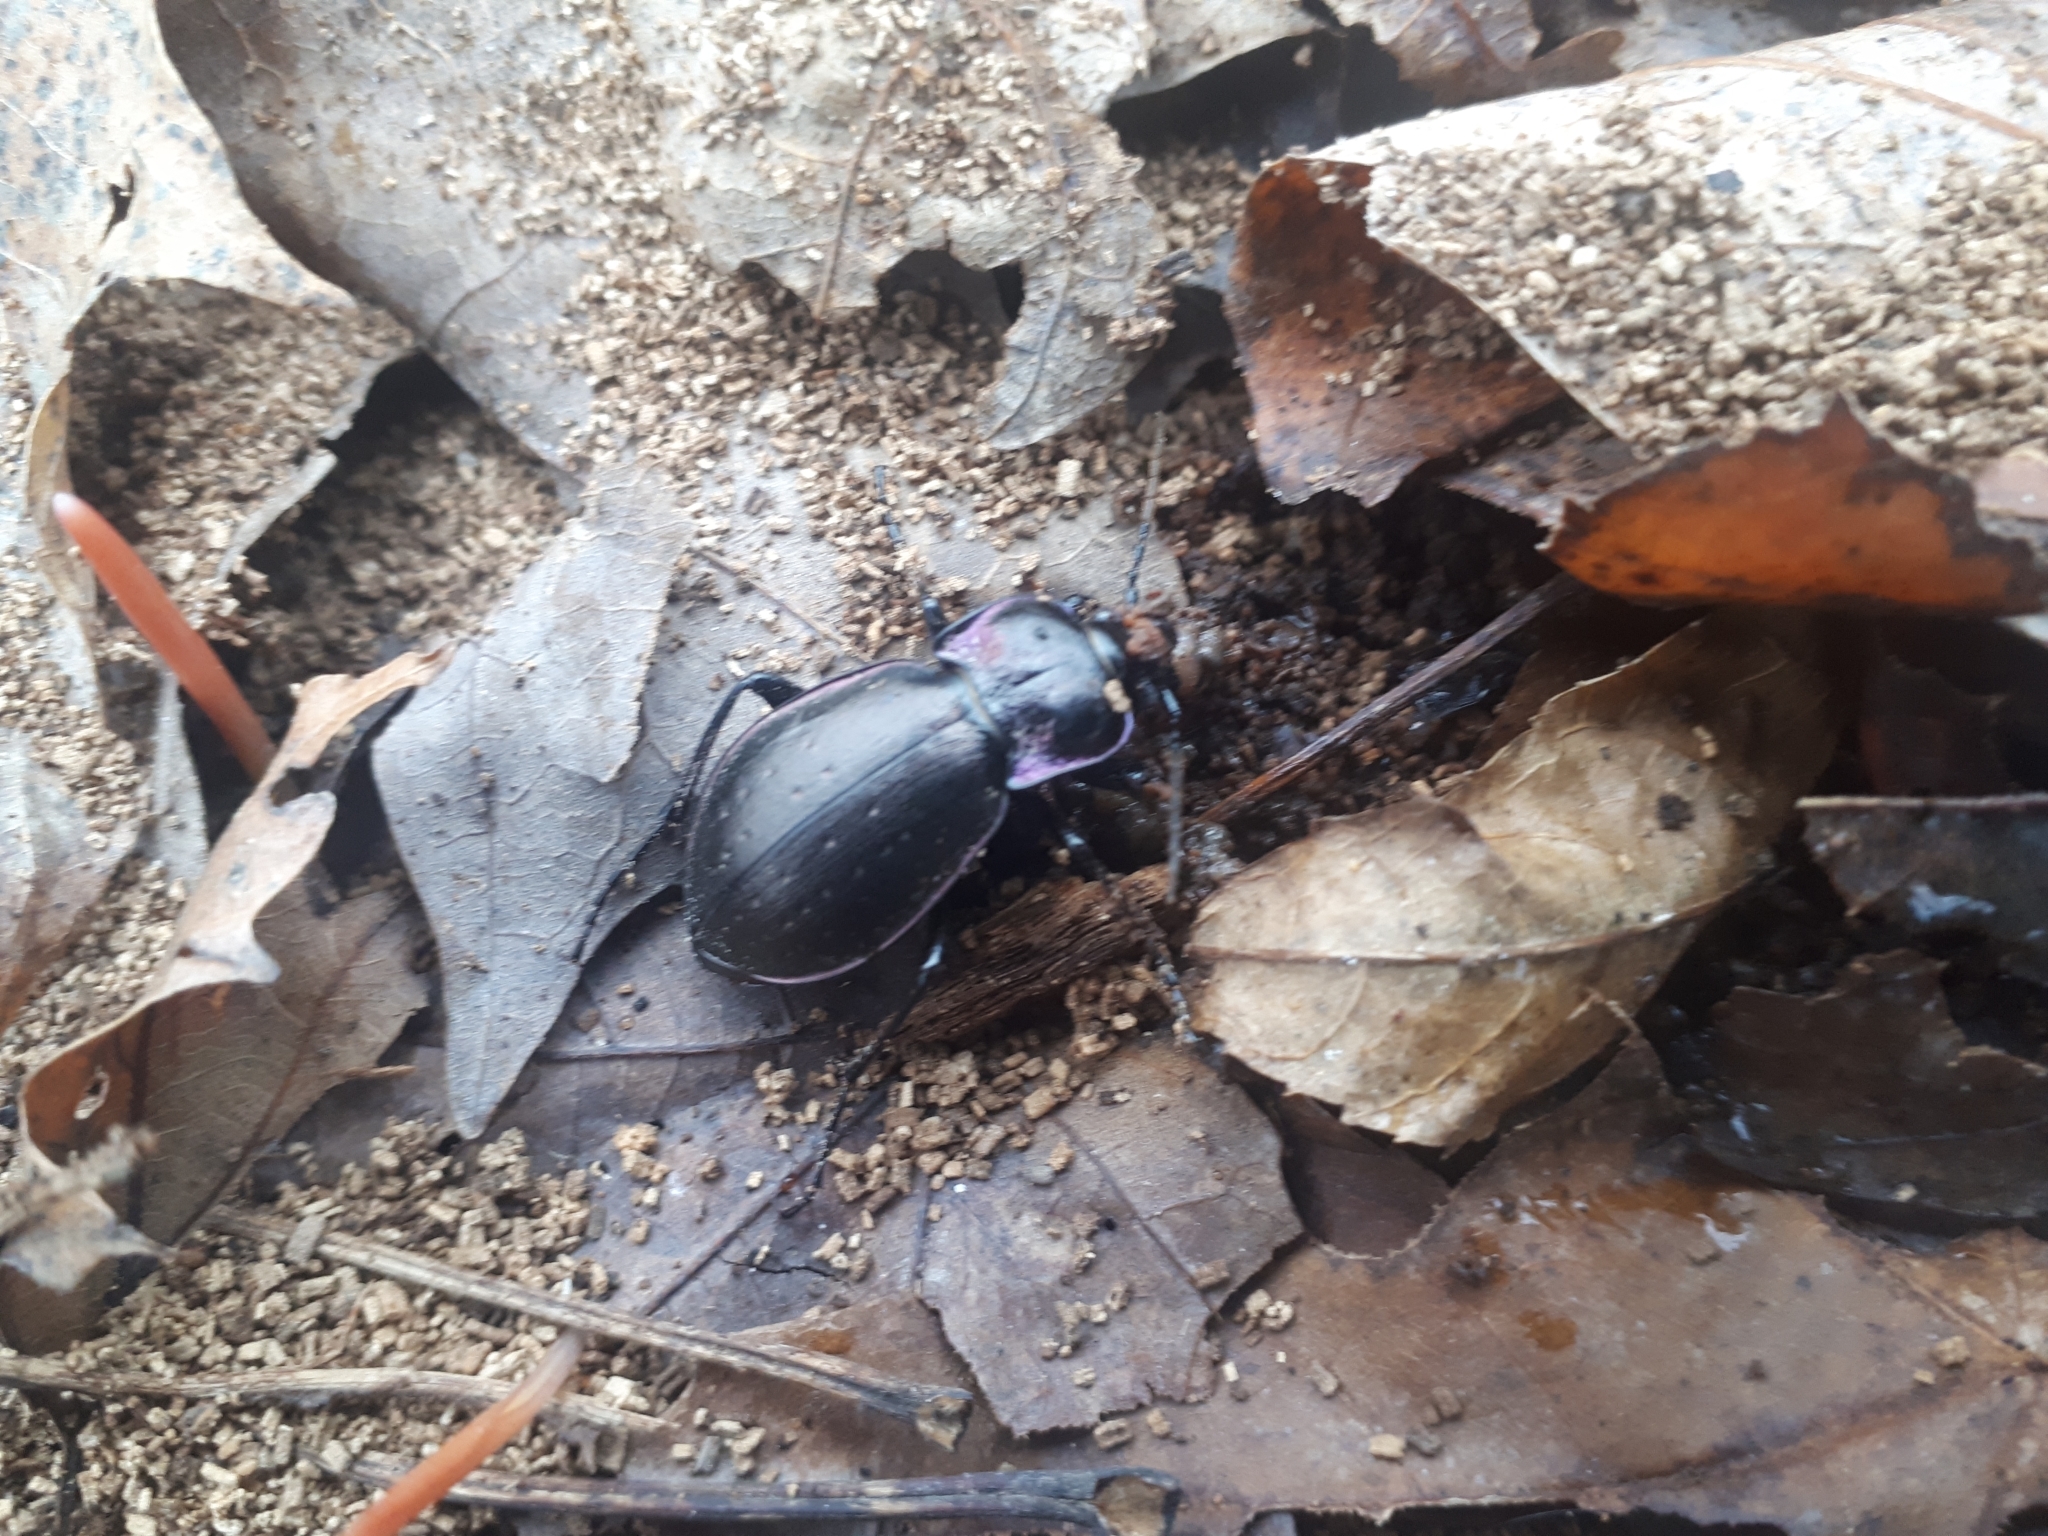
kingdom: Animalia
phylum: Arthropoda
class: Insecta
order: Coleoptera
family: Carabidae
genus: Carabus
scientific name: Carabus nemoralis
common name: European ground beetle
